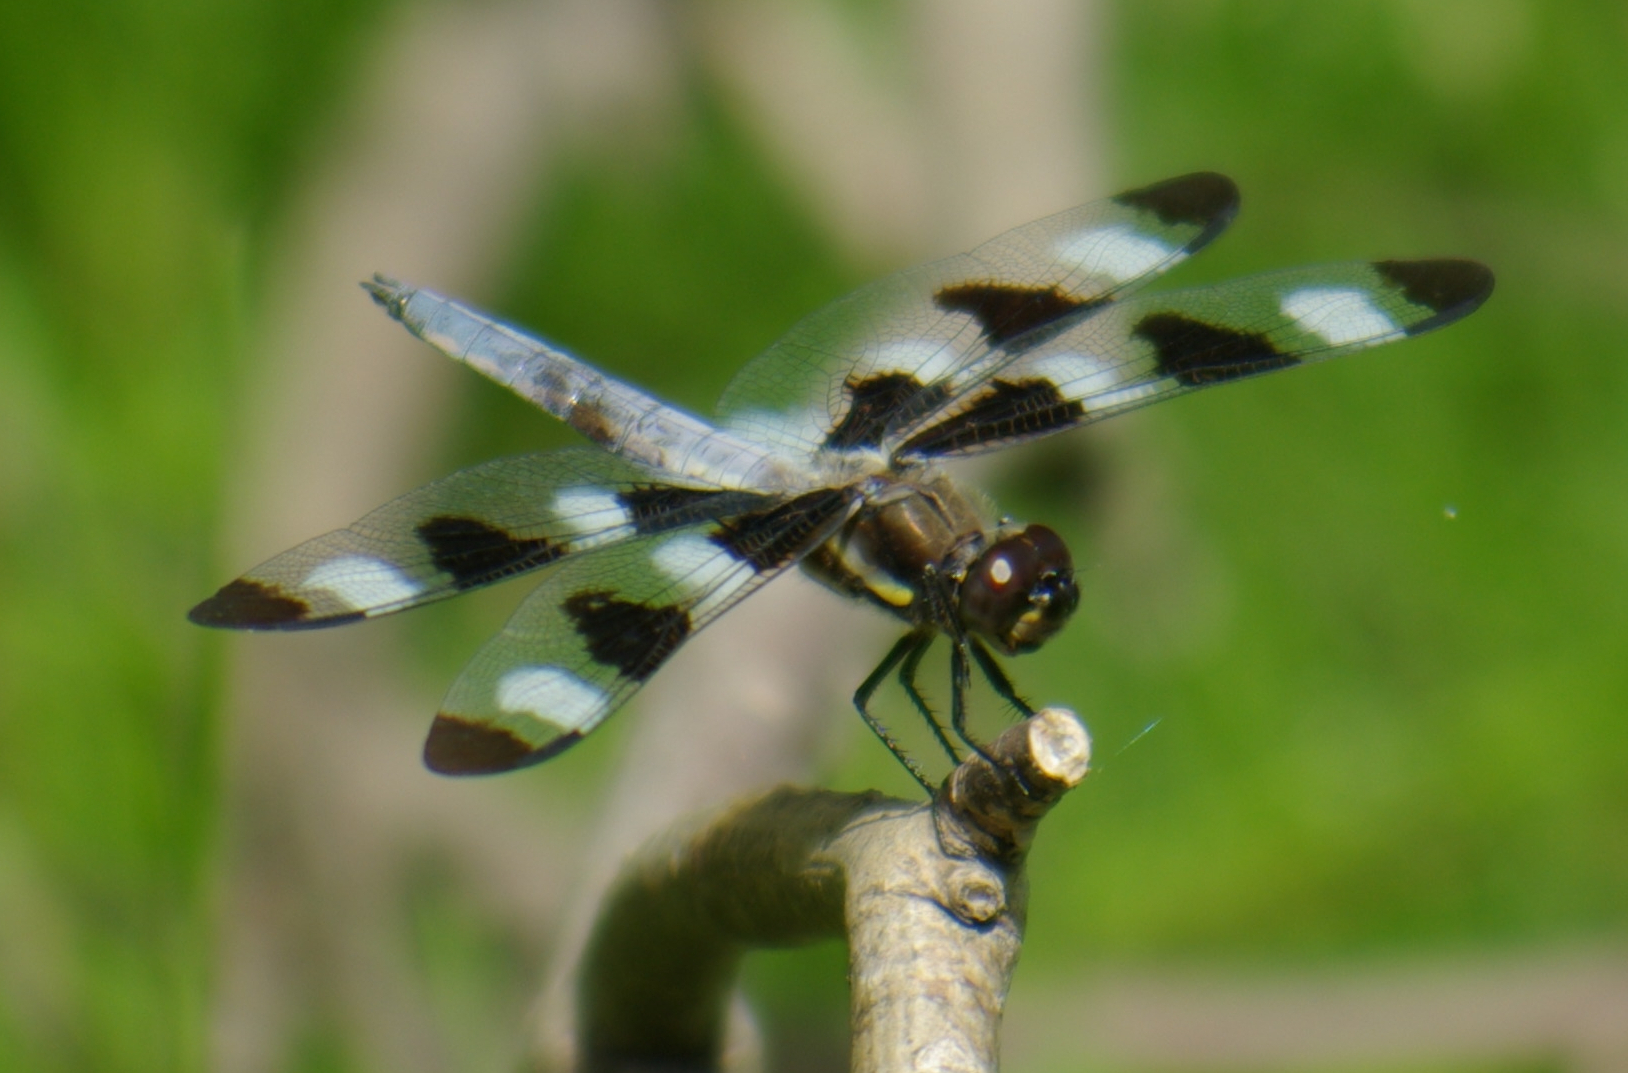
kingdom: Animalia
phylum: Arthropoda
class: Insecta
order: Odonata
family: Libellulidae
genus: Libellula
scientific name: Libellula pulchella
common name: Twelve-spotted skimmer
